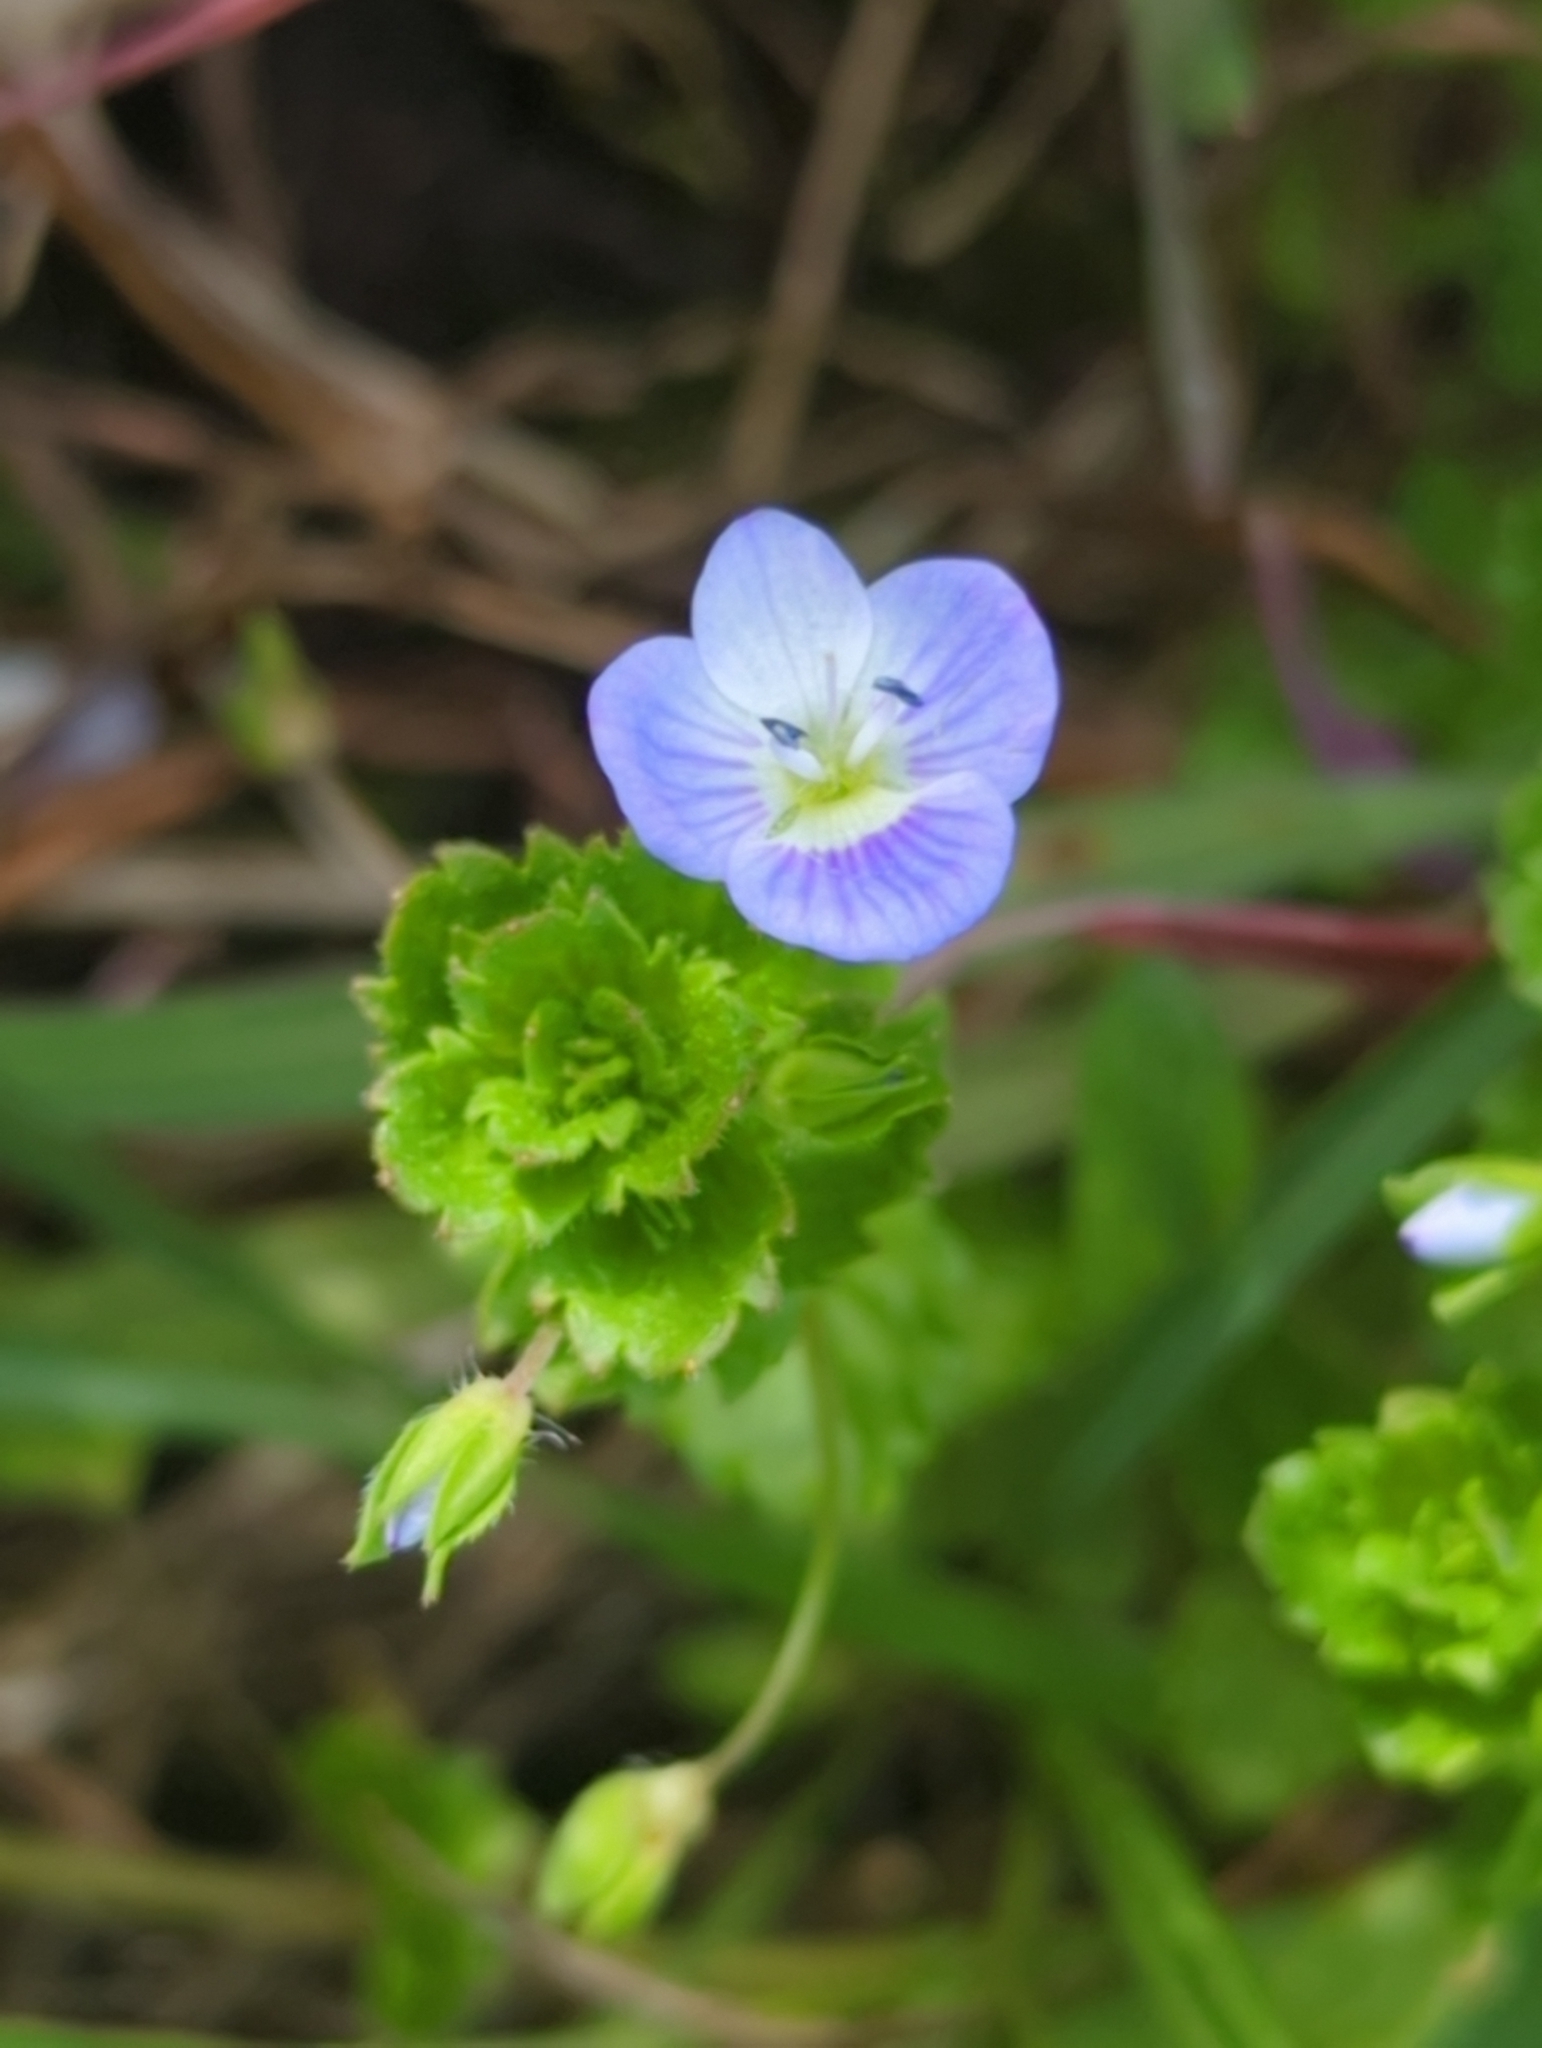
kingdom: Plantae
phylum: Tracheophyta
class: Magnoliopsida
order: Lamiales
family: Plantaginaceae
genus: Veronica
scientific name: Veronica persica
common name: Common field-speedwell
